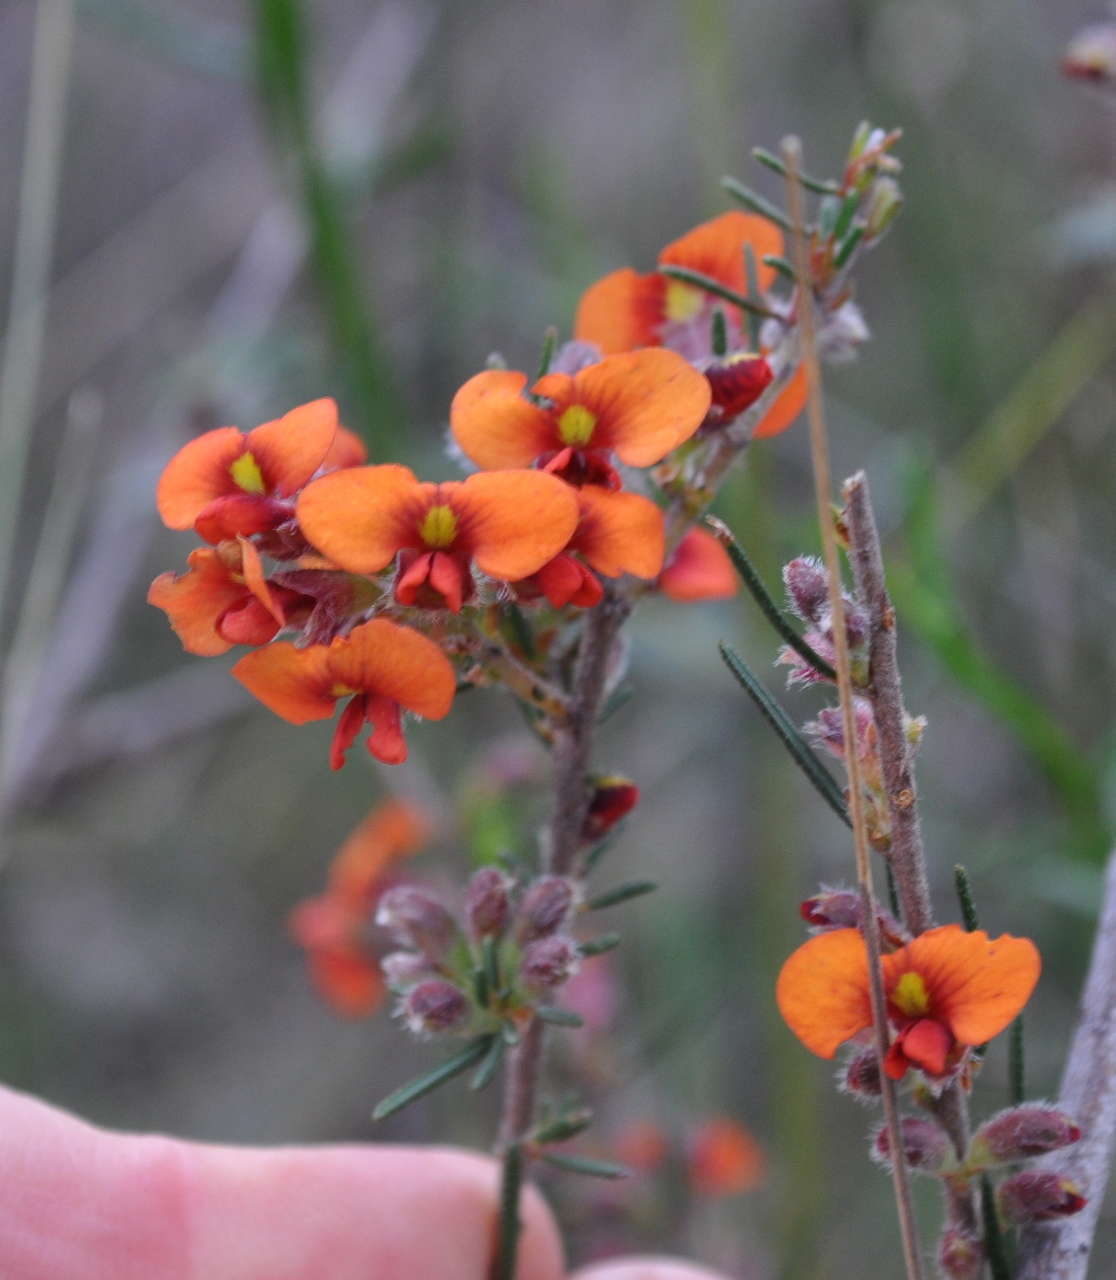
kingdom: Plantae
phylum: Tracheophyta
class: Magnoliopsida
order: Fabales
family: Fabaceae
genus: Dillwynia
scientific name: Dillwynia sericea
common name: Showy parrot-pea
